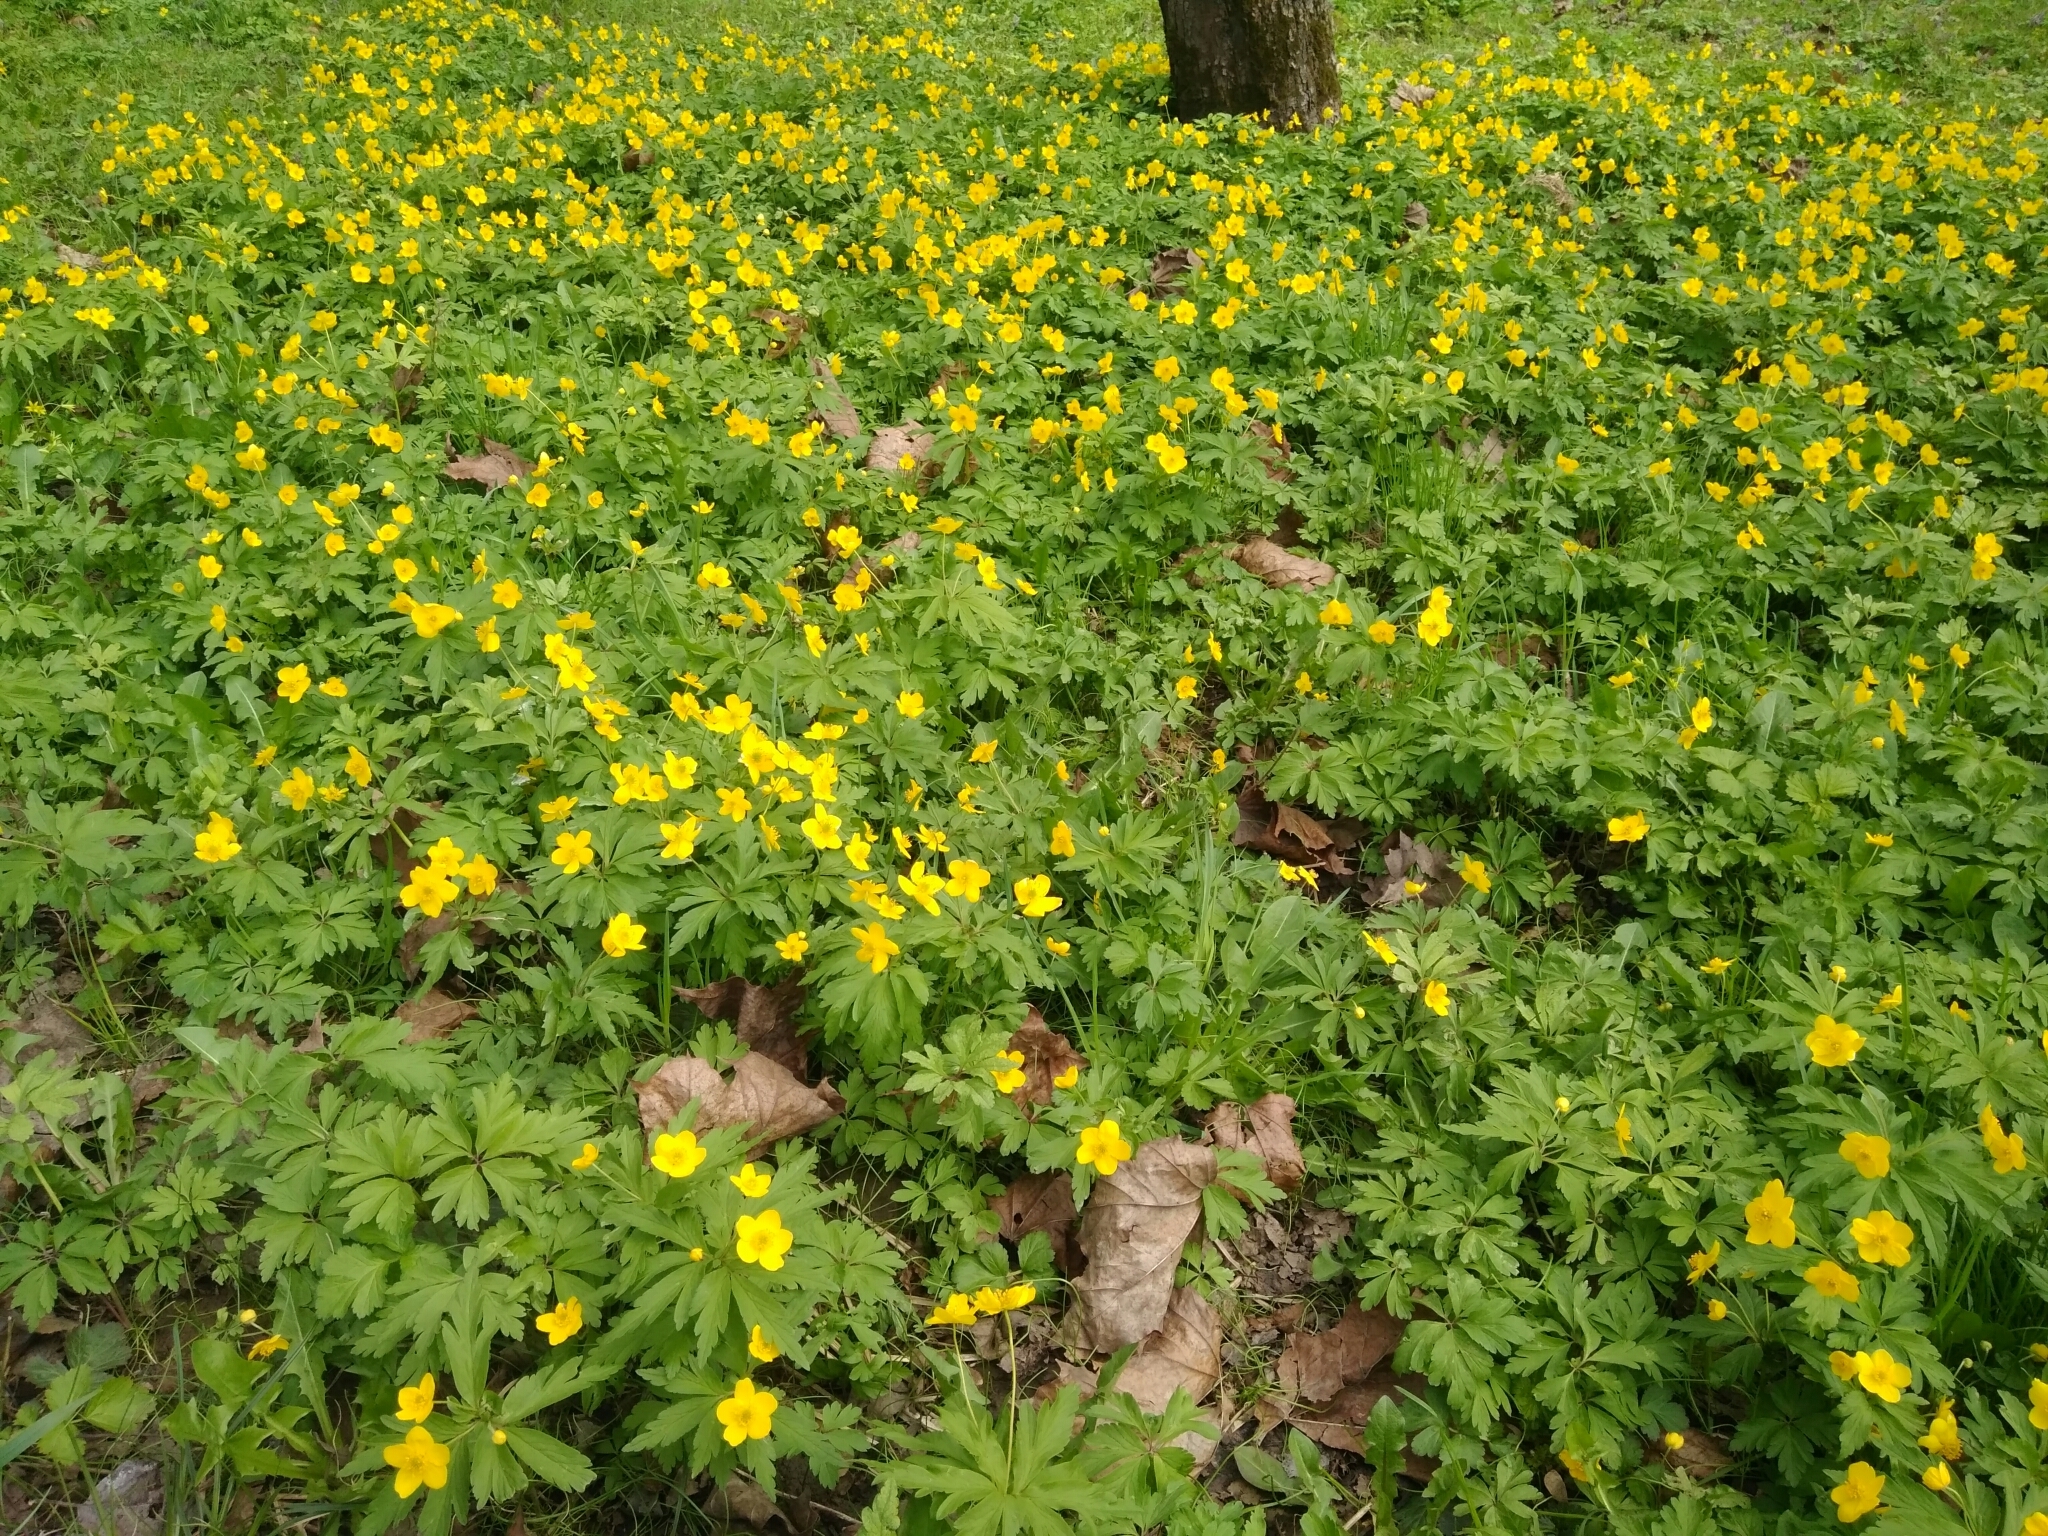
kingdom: Plantae
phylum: Tracheophyta
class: Magnoliopsida
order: Ranunculales
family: Ranunculaceae
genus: Anemone
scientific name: Anemone ranunculoides
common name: Yellow anemone
